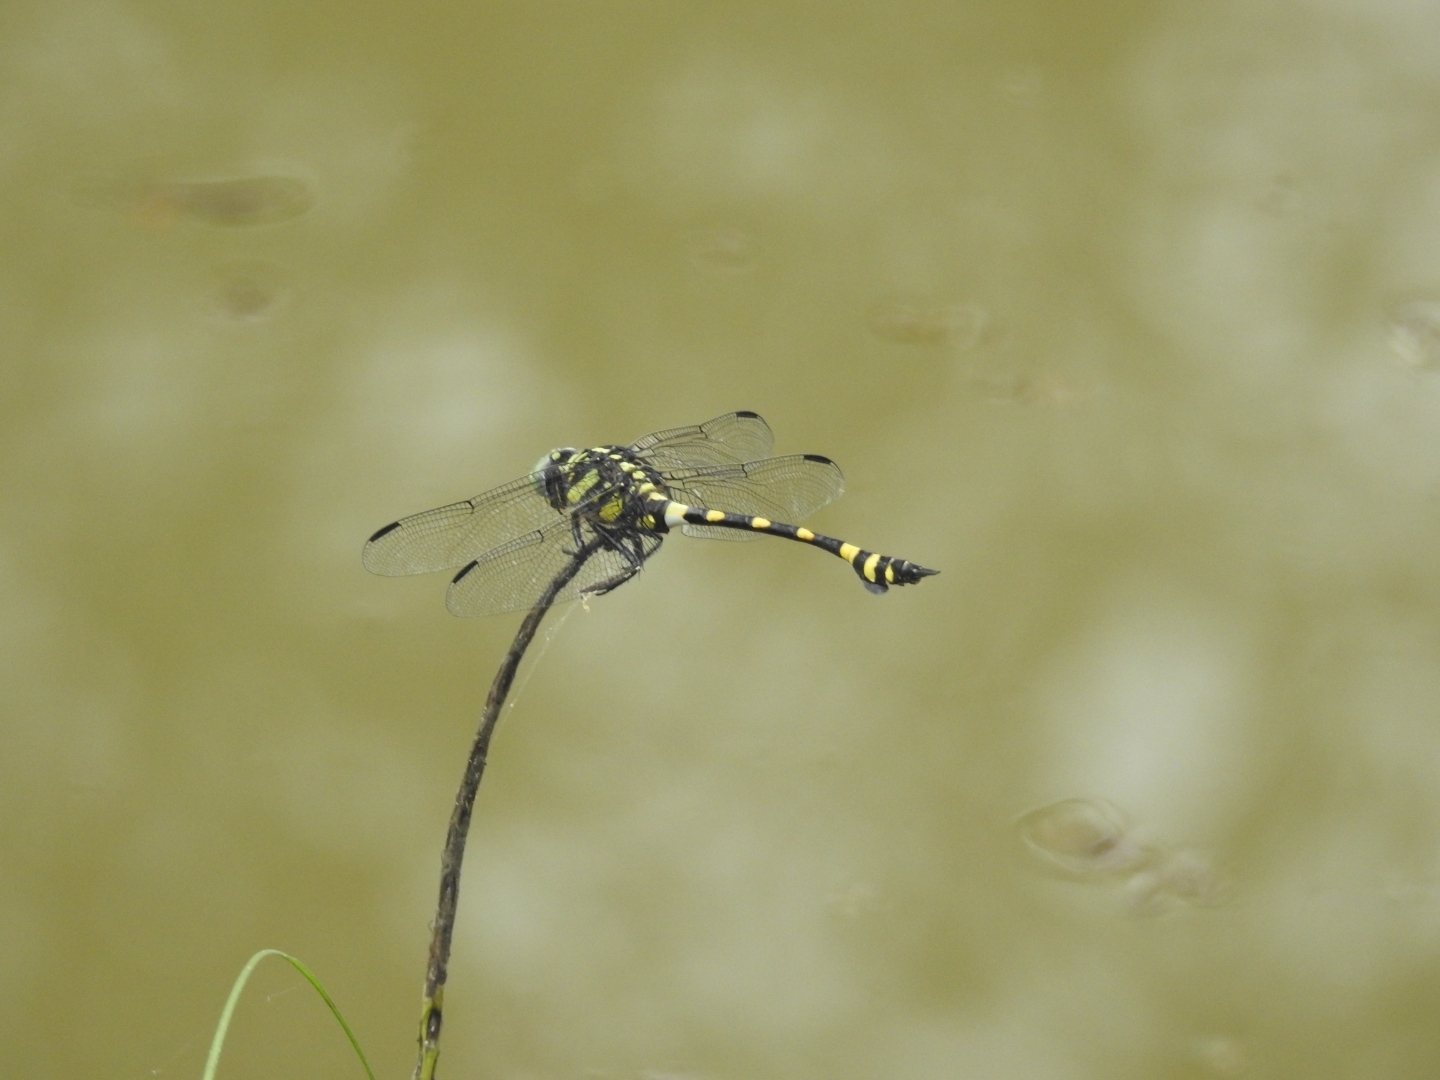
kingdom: Animalia
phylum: Arthropoda
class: Insecta
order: Odonata
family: Gomphidae
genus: Ictinogomphus
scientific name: Ictinogomphus rapax
